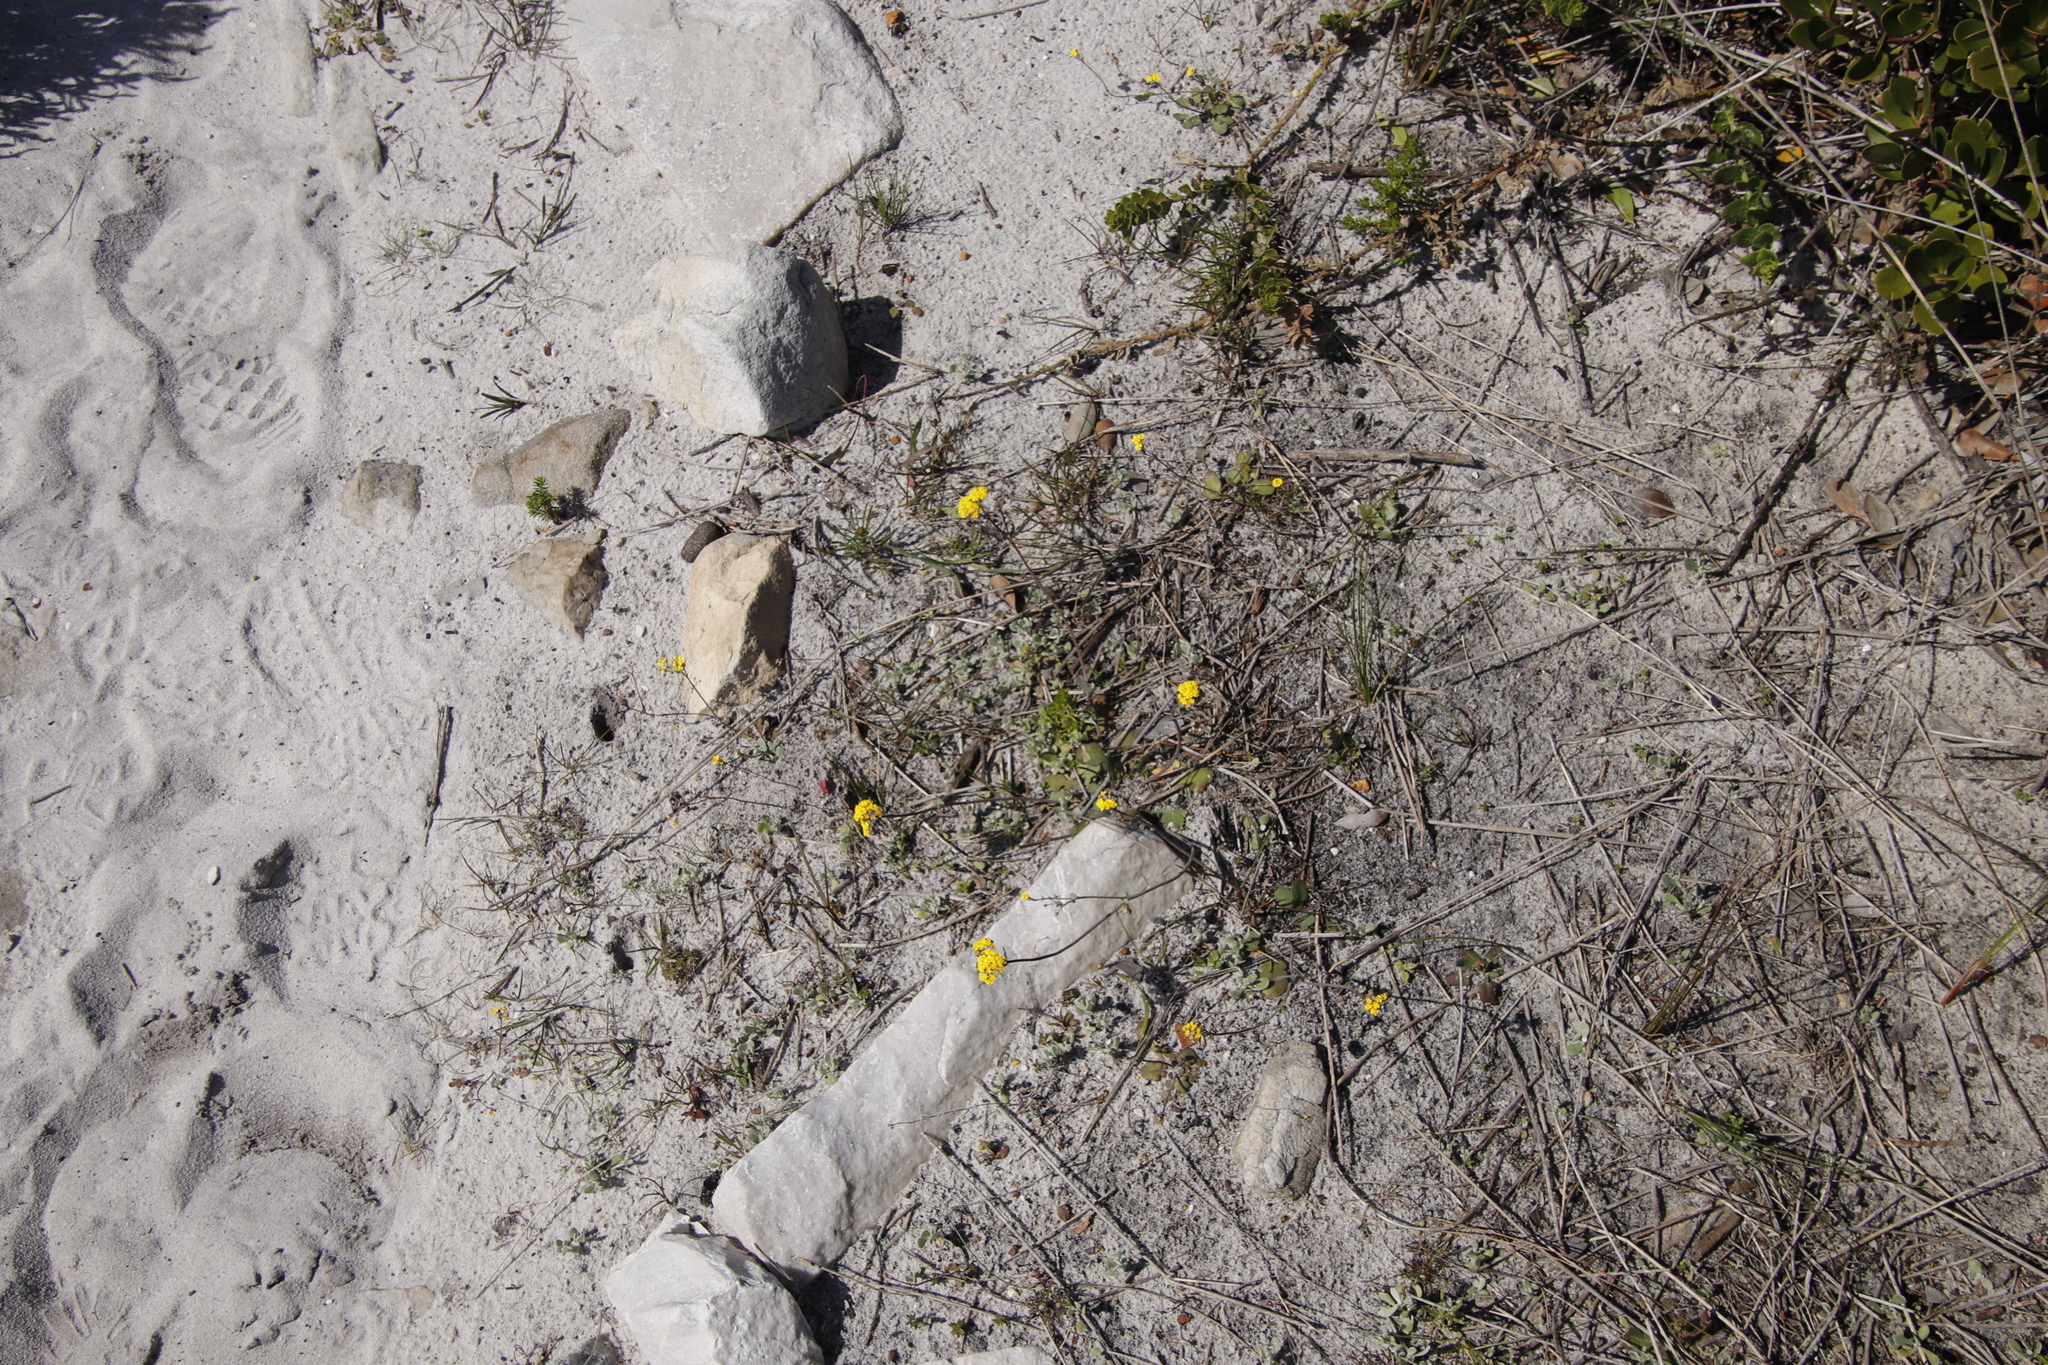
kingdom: Plantae
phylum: Tracheophyta
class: Magnoliopsida
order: Asterales
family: Asteraceae
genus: Gymnodiscus
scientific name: Gymnodiscus capillaris
